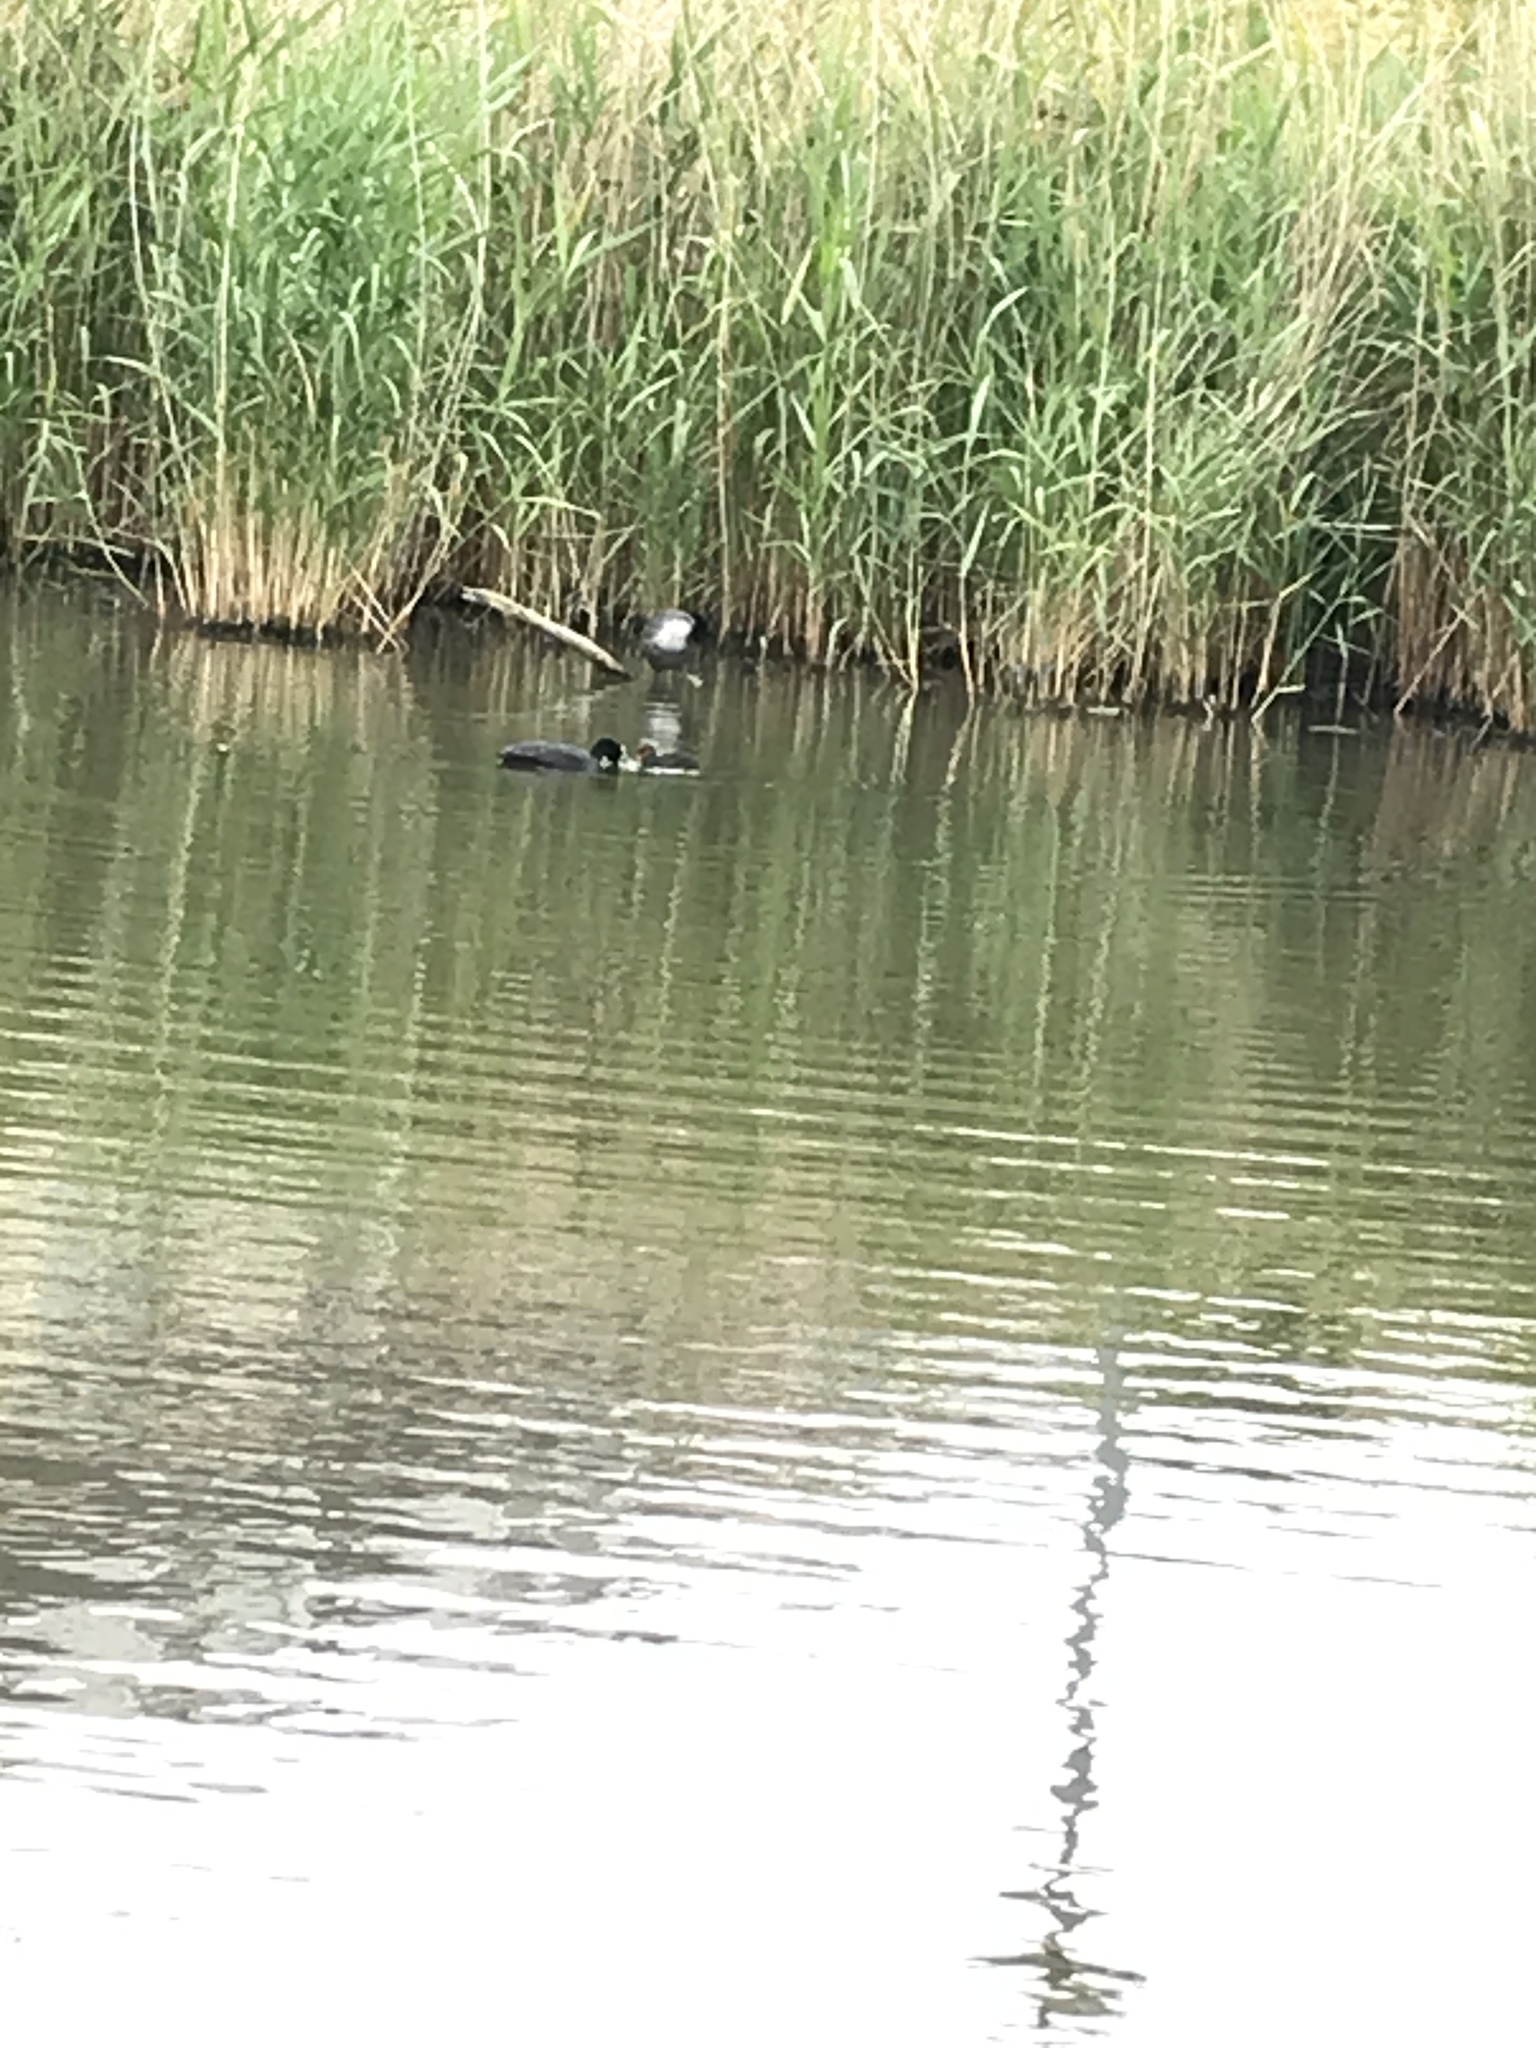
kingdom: Animalia
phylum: Chordata
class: Aves
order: Gruiformes
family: Rallidae
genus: Fulica
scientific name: Fulica atra
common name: Eurasian coot
